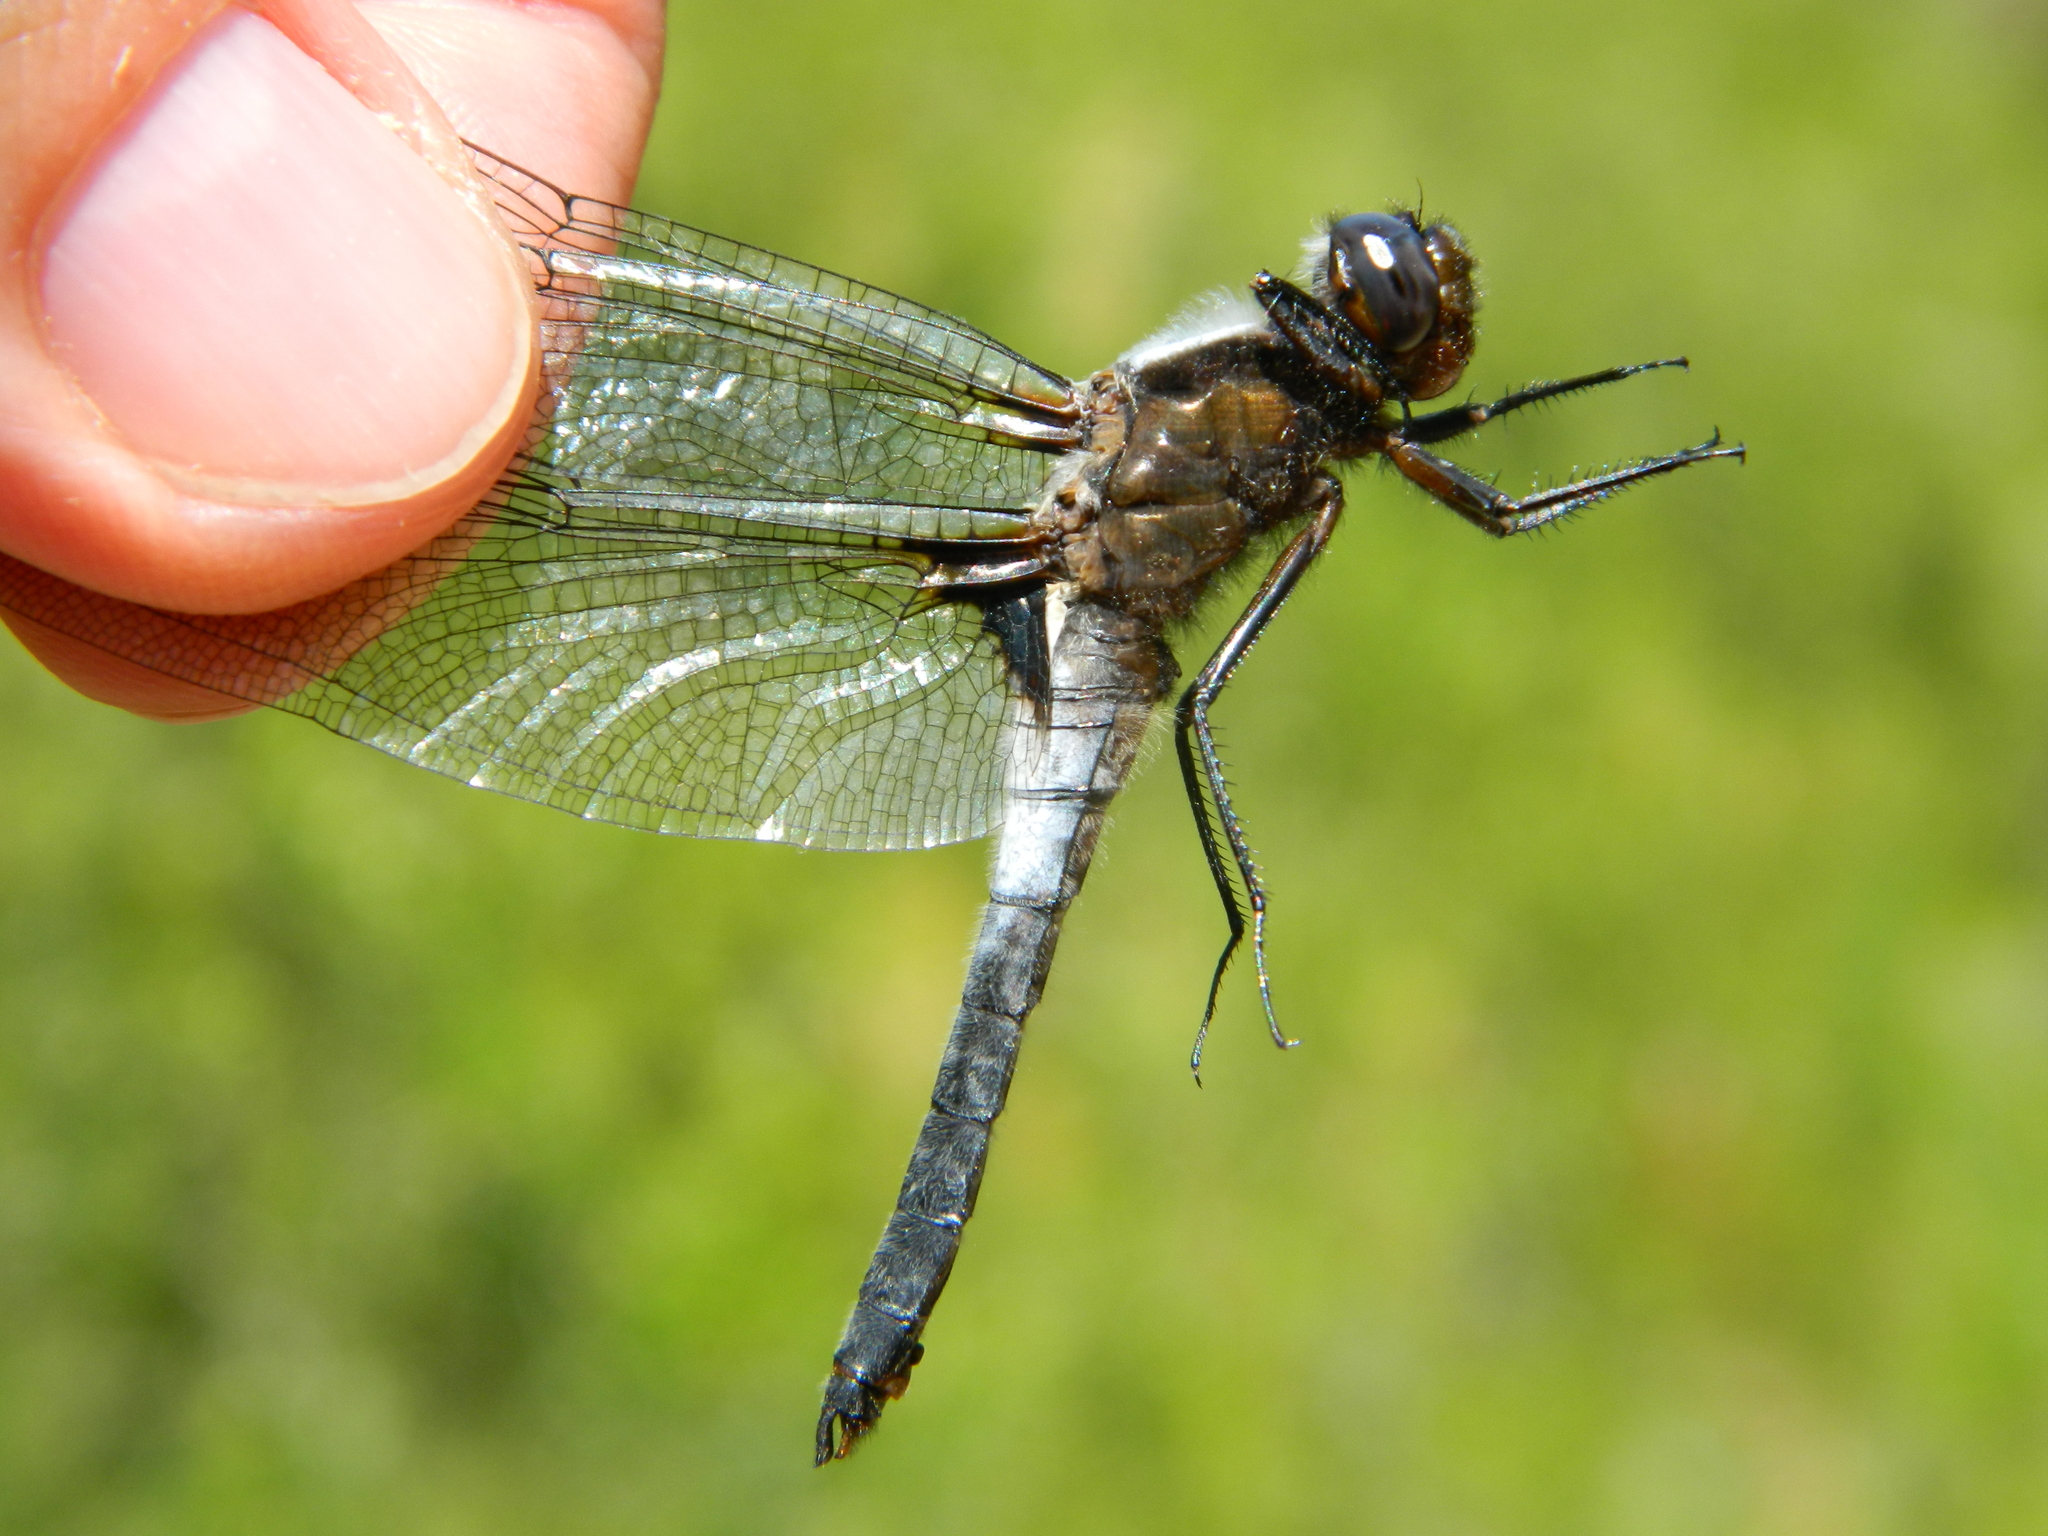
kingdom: Animalia
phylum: Arthropoda
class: Insecta
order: Odonata
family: Libellulidae
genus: Ladona
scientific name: Ladona julia
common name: Chalk-fronted corporal
